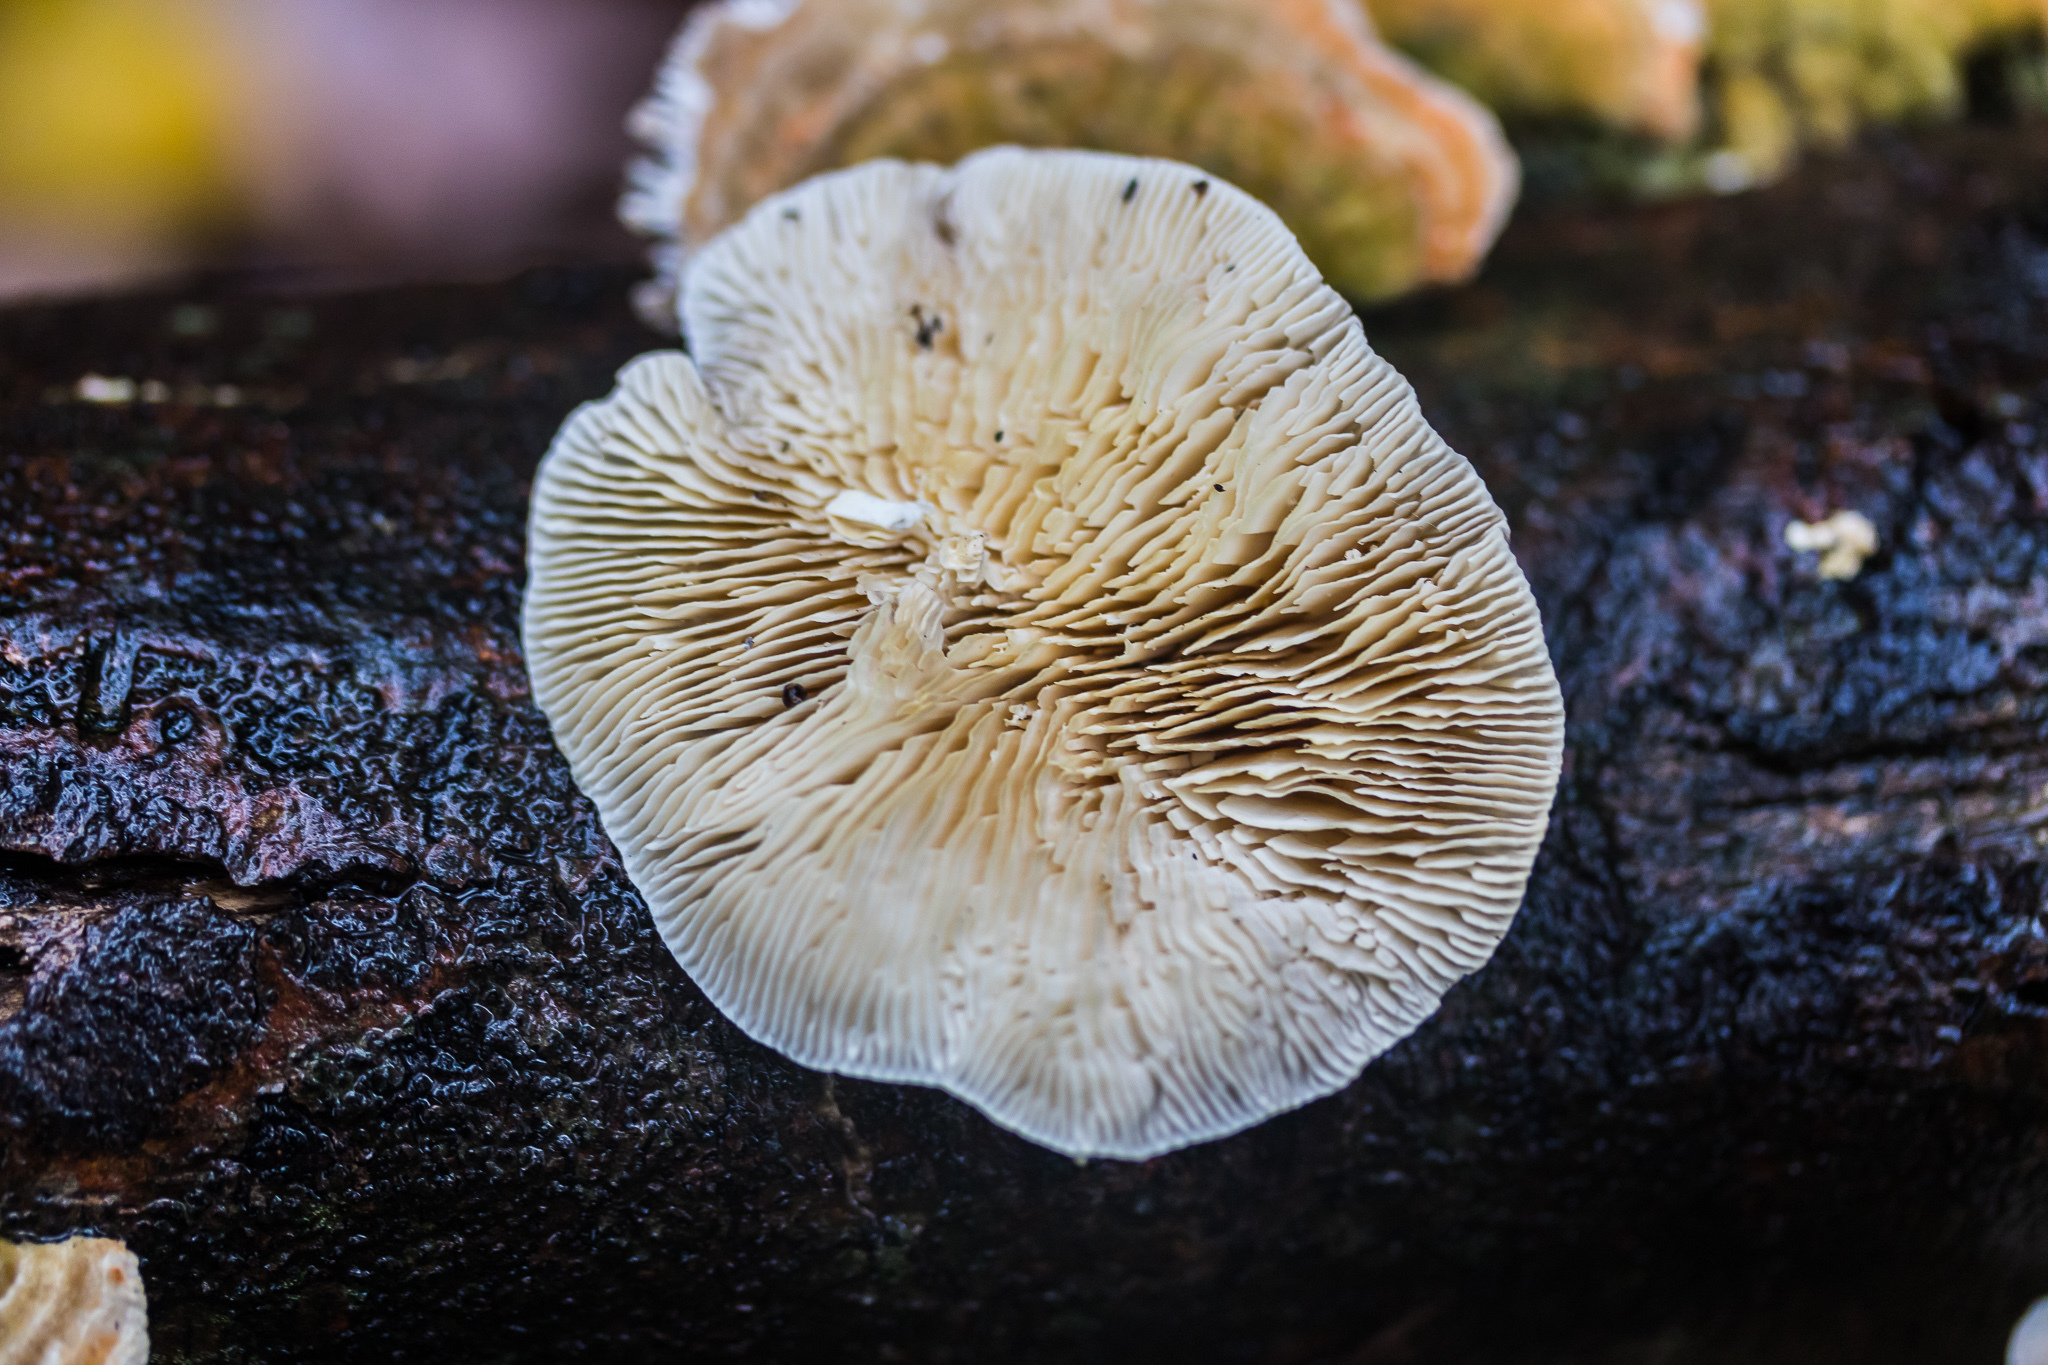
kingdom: Fungi
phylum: Basidiomycota
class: Agaricomycetes
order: Polyporales
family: Polyporaceae
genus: Lenzites
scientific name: Lenzites betulinus
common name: Birch mazegill
